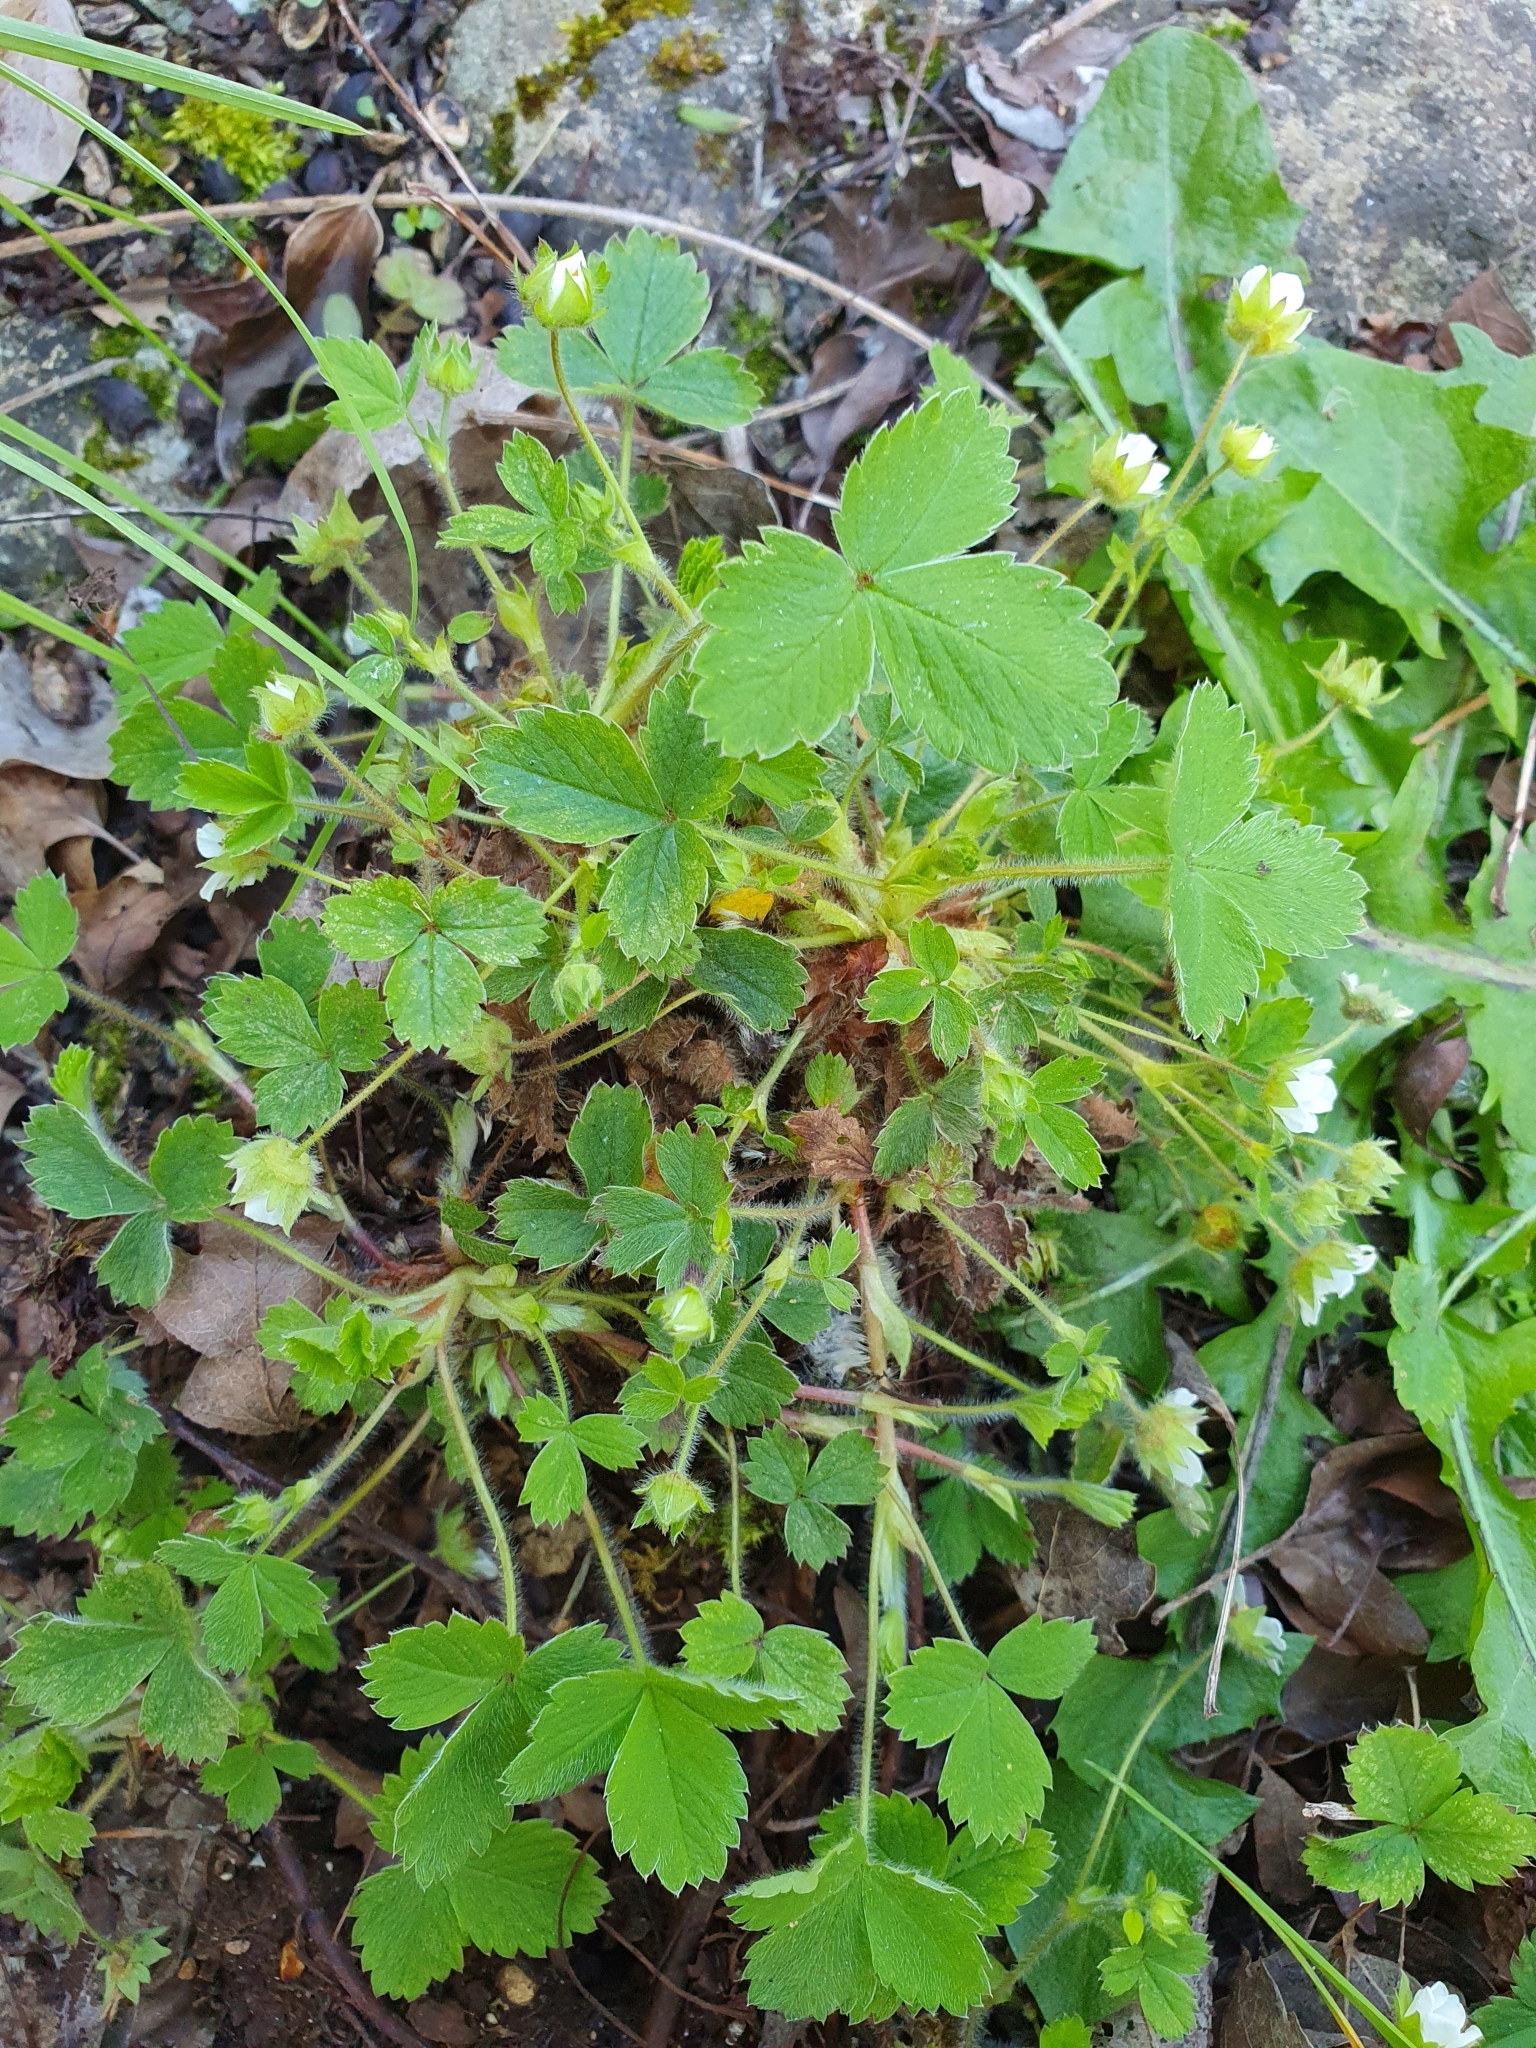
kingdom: Plantae
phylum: Tracheophyta
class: Magnoliopsida
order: Rosales
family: Rosaceae
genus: Potentilla
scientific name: Potentilla sterilis
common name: Barren strawberry
